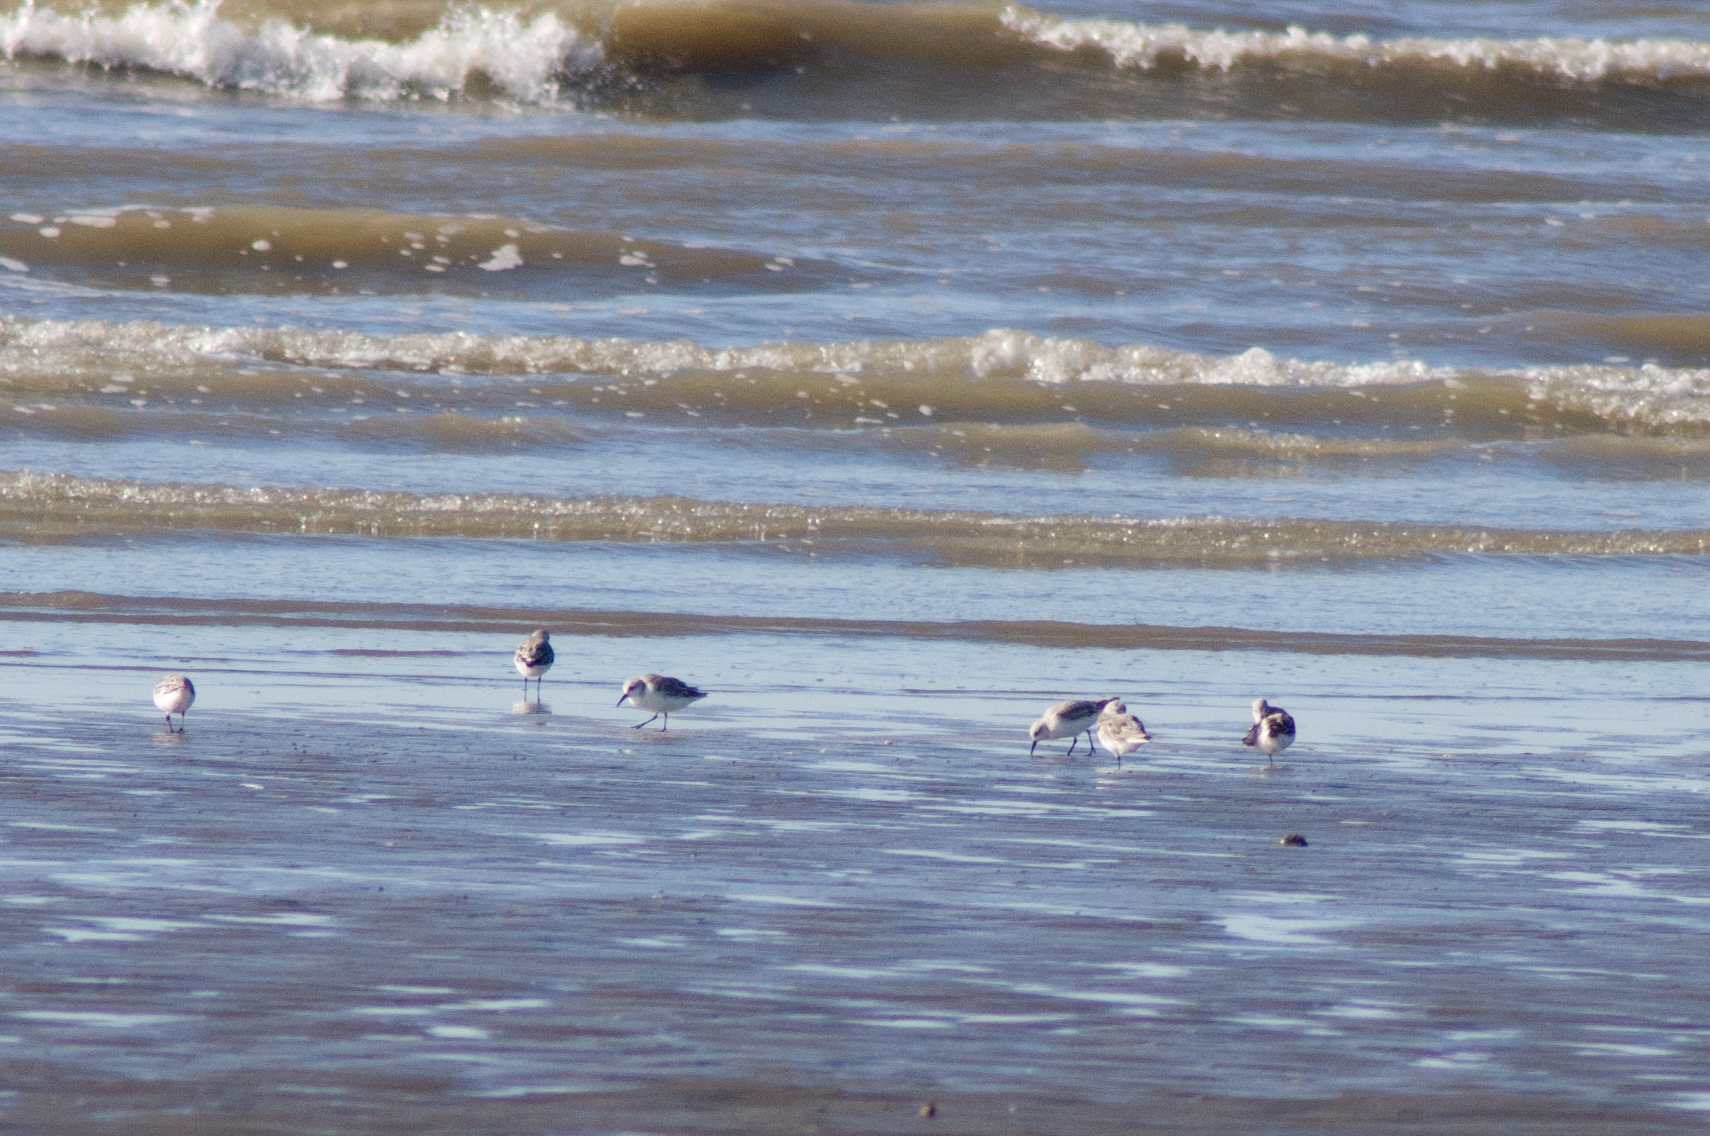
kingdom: Animalia
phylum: Chordata
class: Aves
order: Charadriiformes
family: Scolopacidae
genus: Calidris
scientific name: Calidris alba
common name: Sanderling
